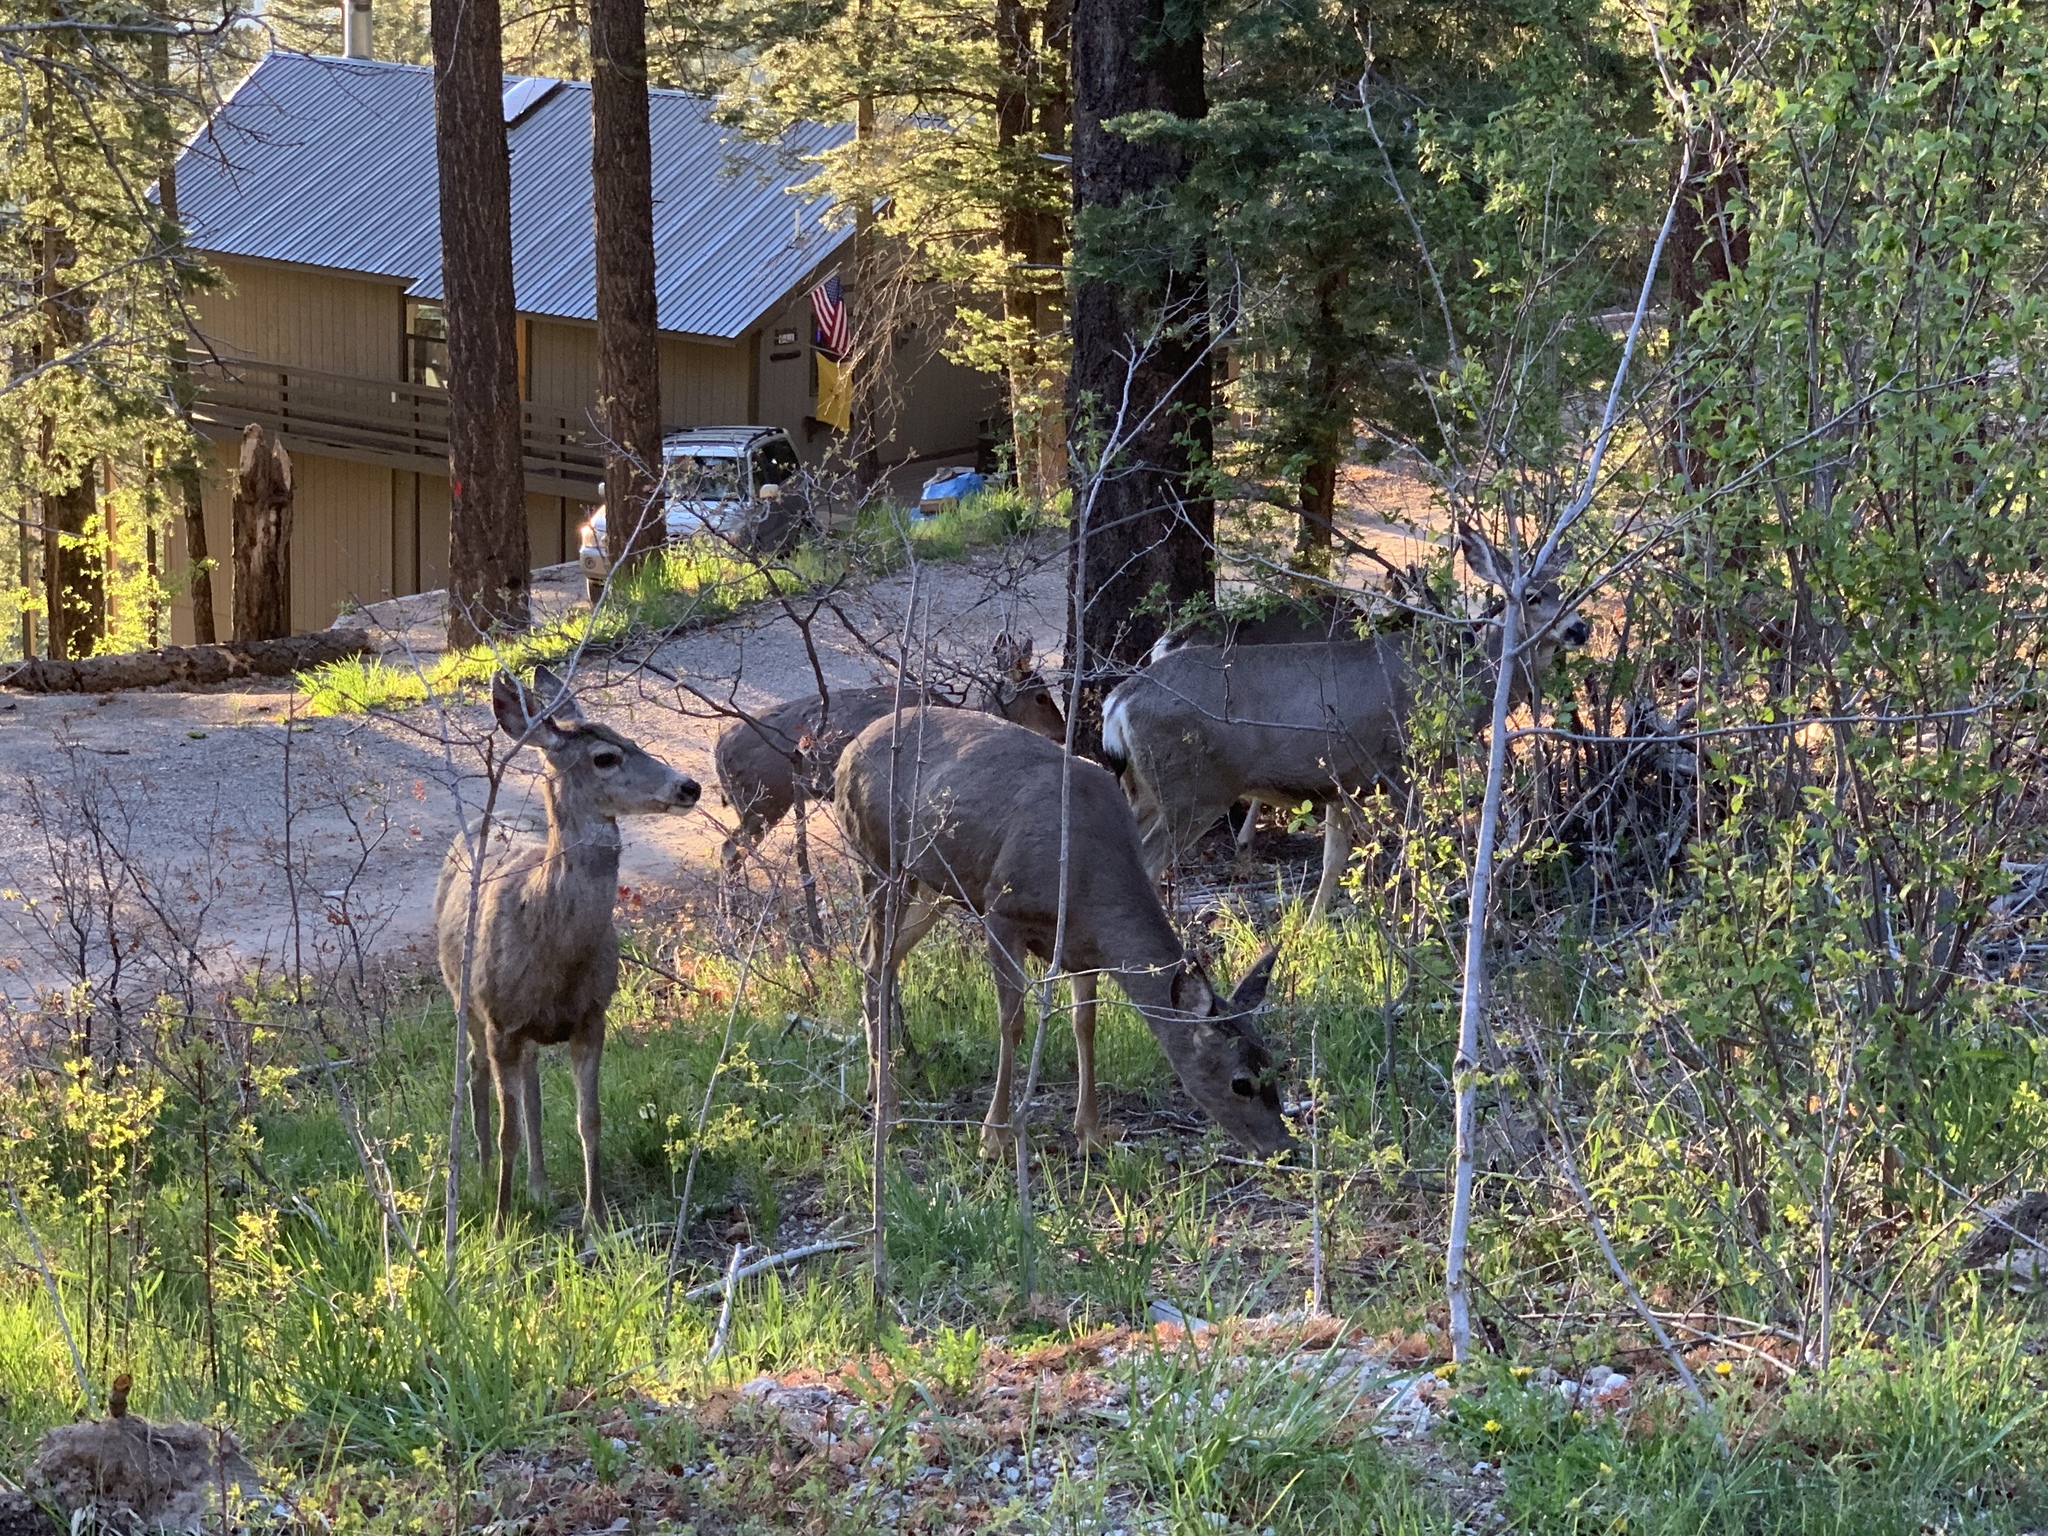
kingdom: Animalia
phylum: Chordata
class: Mammalia
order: Artiodactyla
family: Cervidae
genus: Odocoileus
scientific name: Odocoileus hemionus
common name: Mule deer
